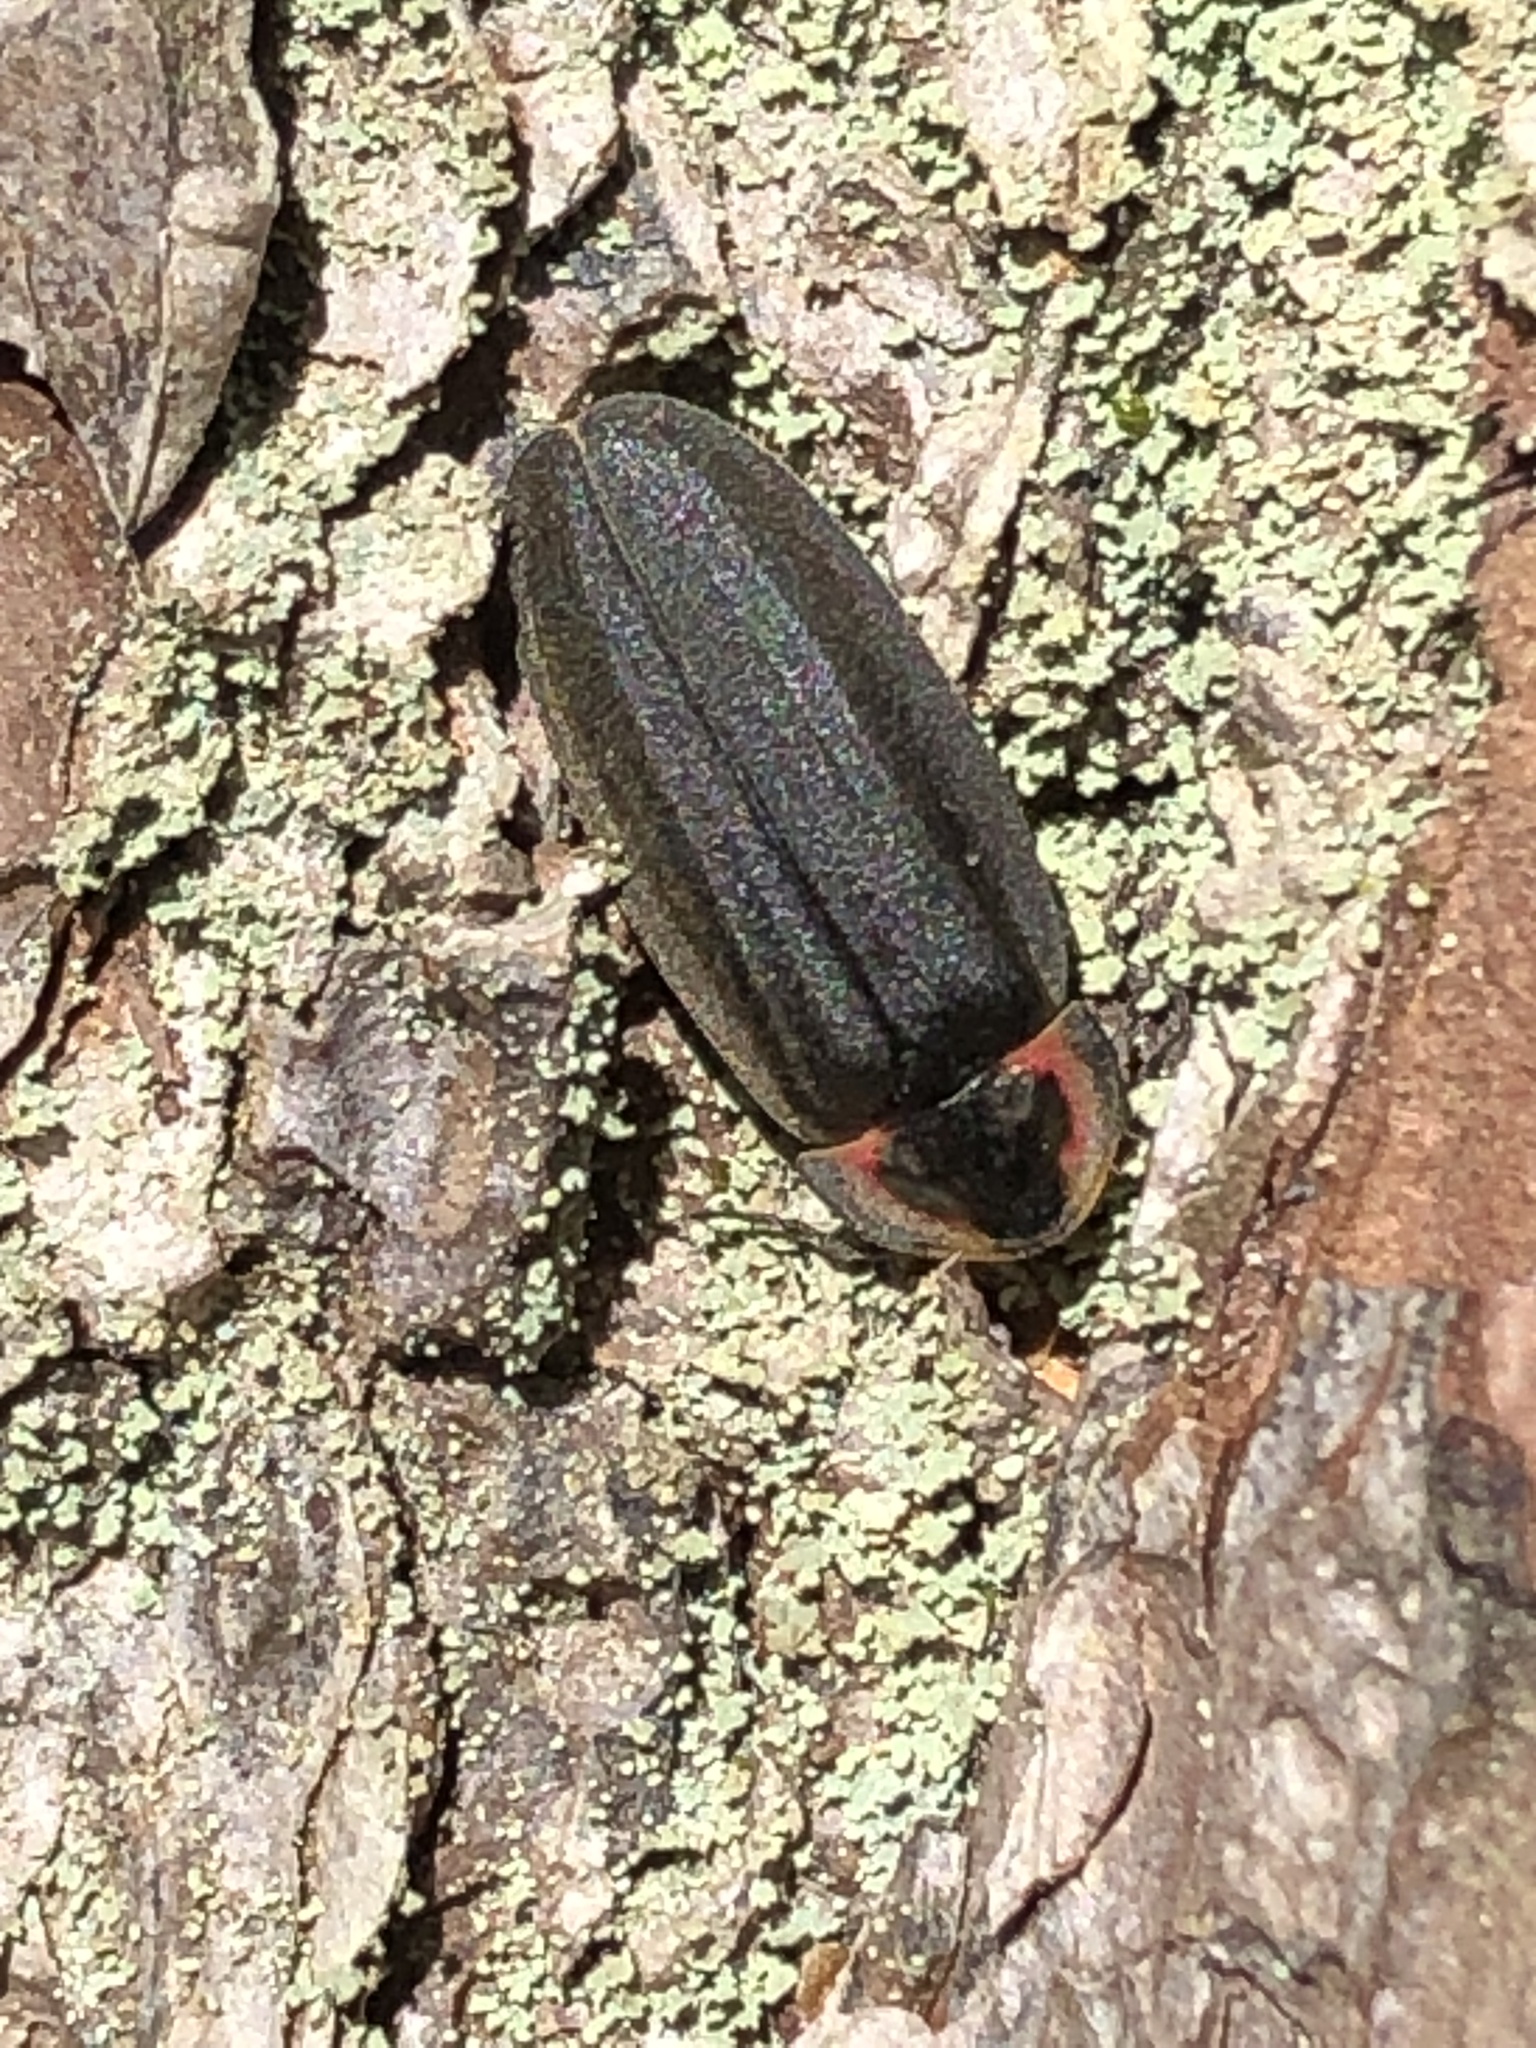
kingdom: Animalia
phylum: Arthropoda
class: Insecta
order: Coleoptera
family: Lampyridae
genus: Photinus
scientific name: Photinus corrusca
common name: Winter firefly
